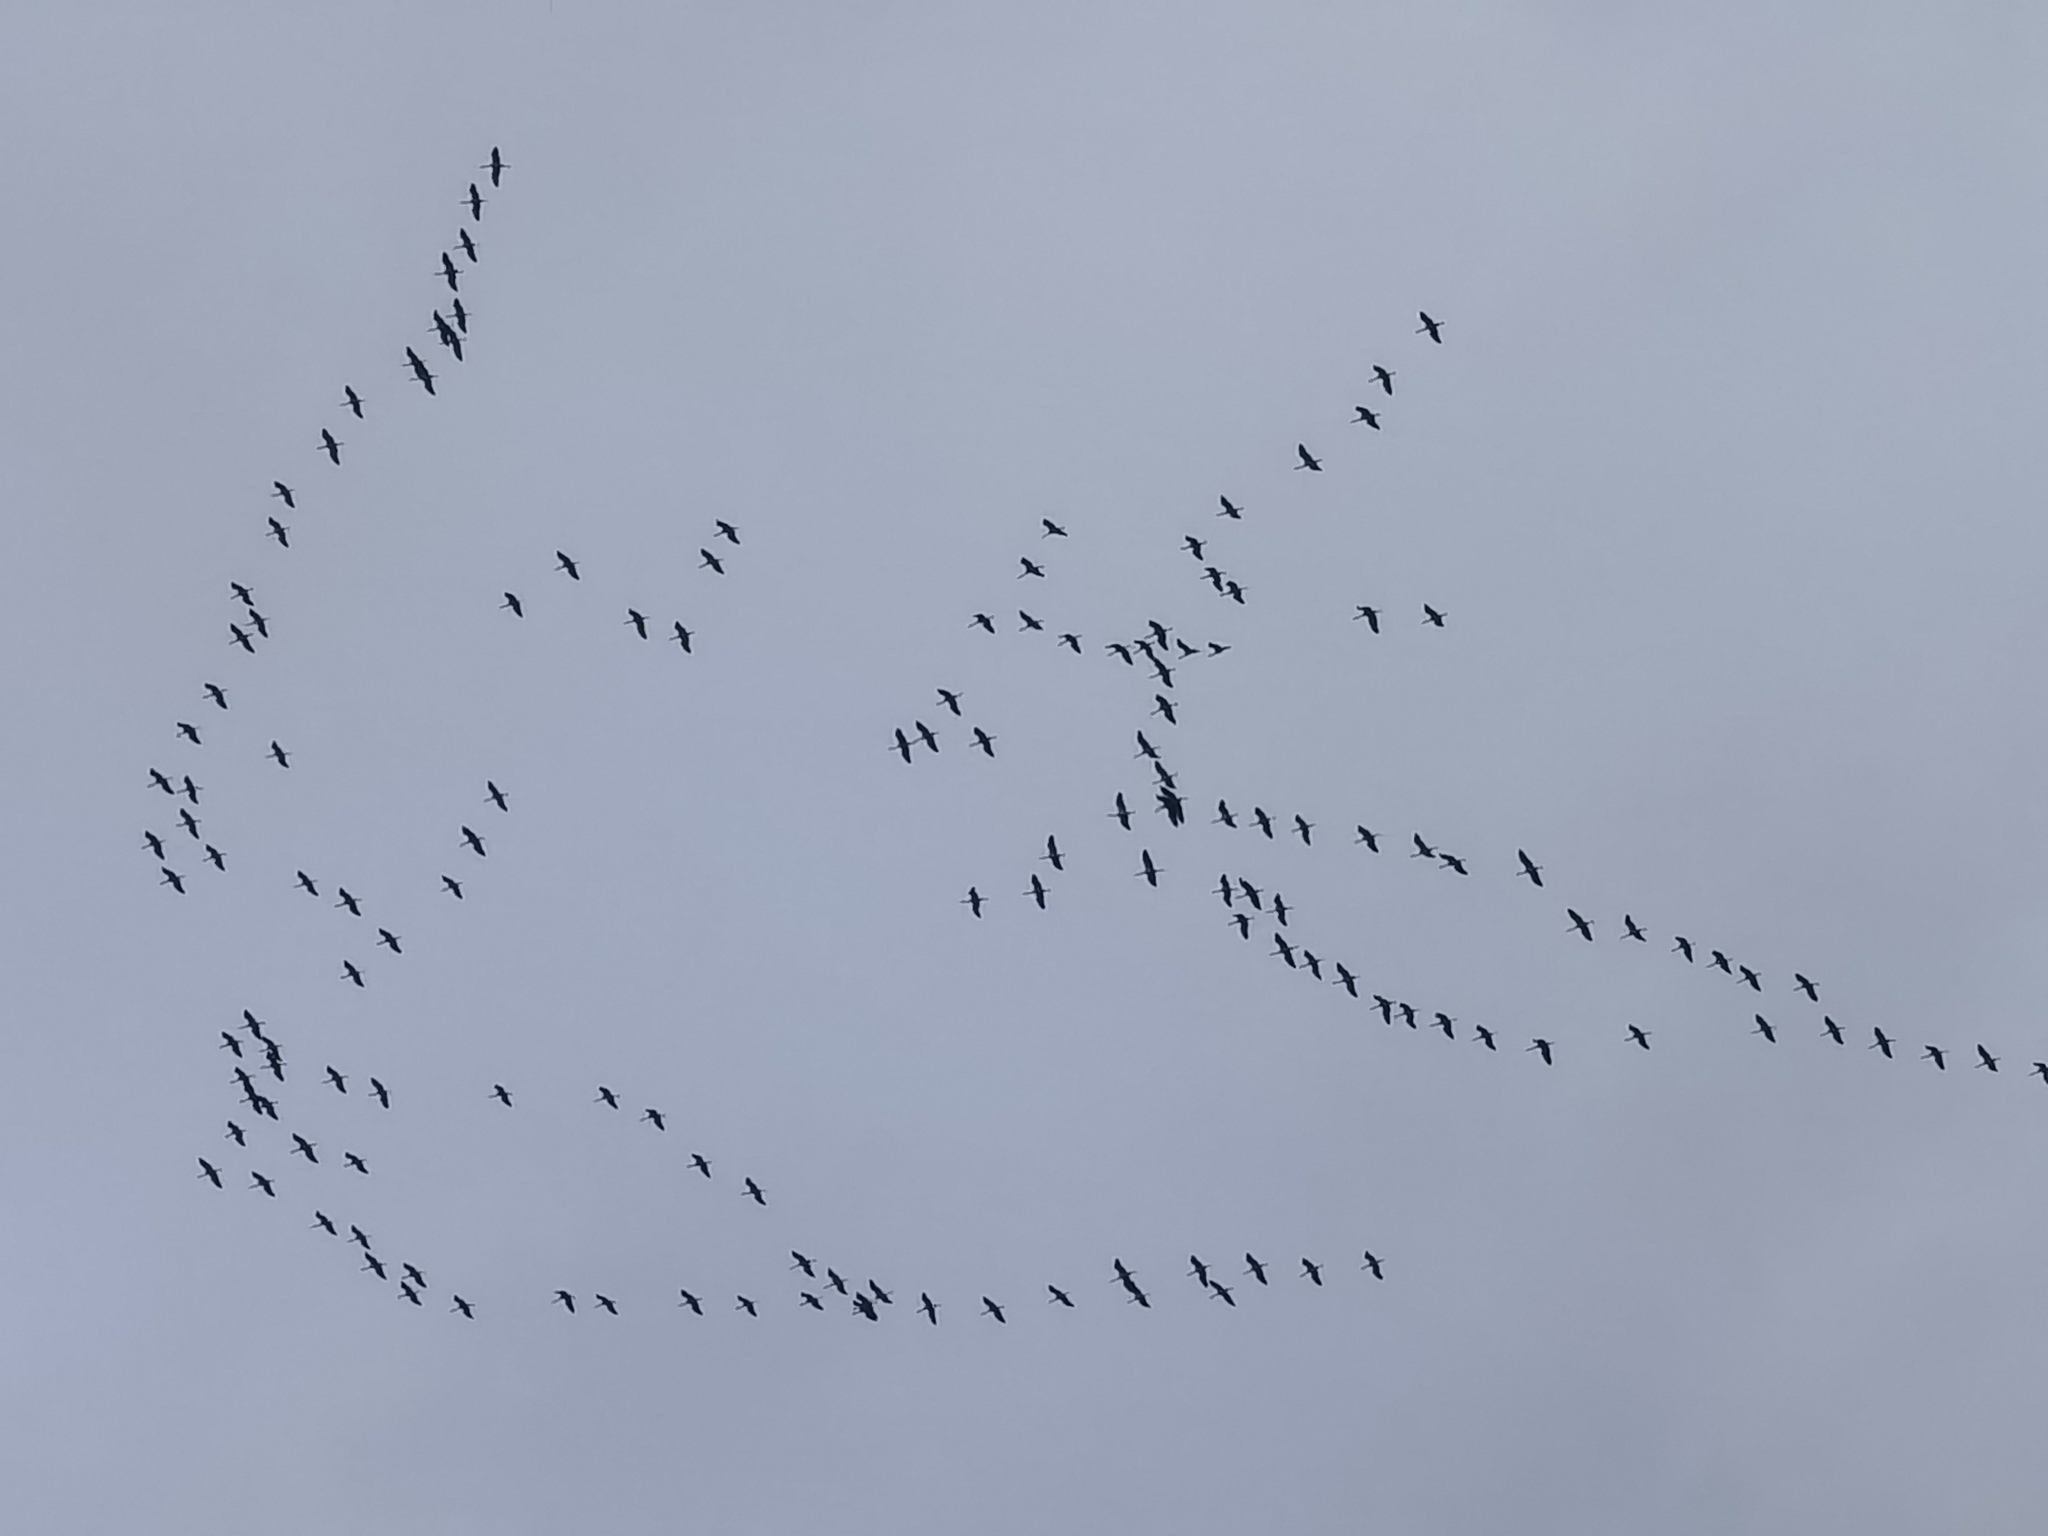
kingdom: Animalia
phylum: Chordata
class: Aves
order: Gruiformes
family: Gruidae
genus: Grus
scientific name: Grus grus
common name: Common crane
